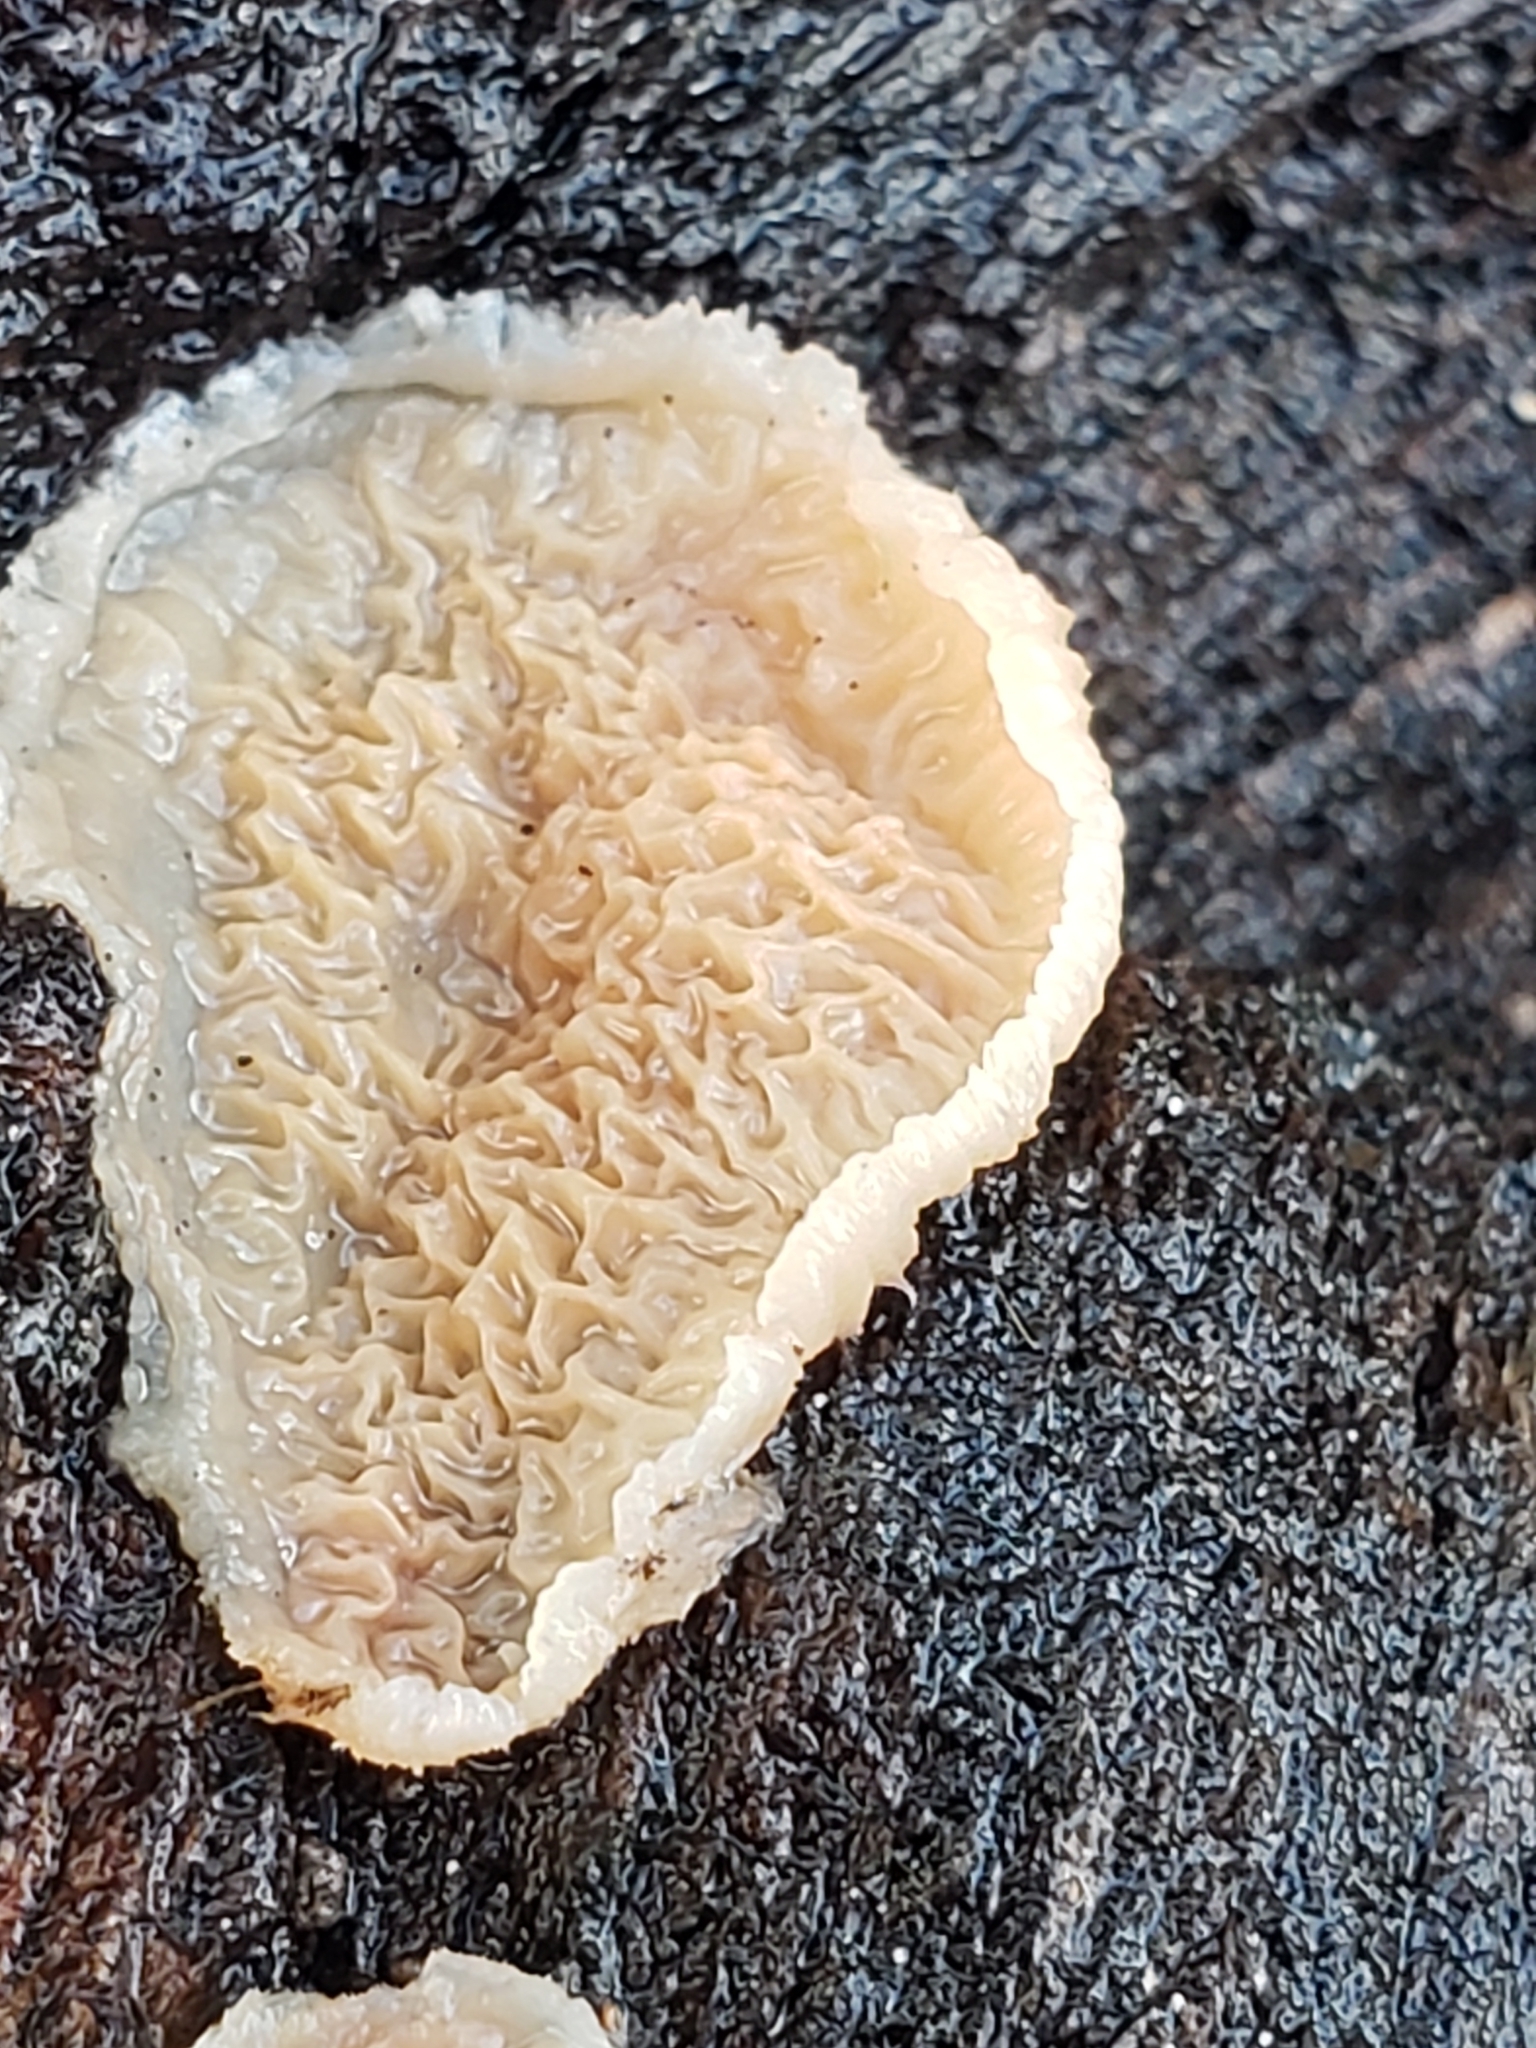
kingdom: Fungi
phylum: Basidiomycota
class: Agaricomycetes
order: Polyporales
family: Meruliaceae
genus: Phlebia
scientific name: Phlebia tremellosa
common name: Jelly rot
